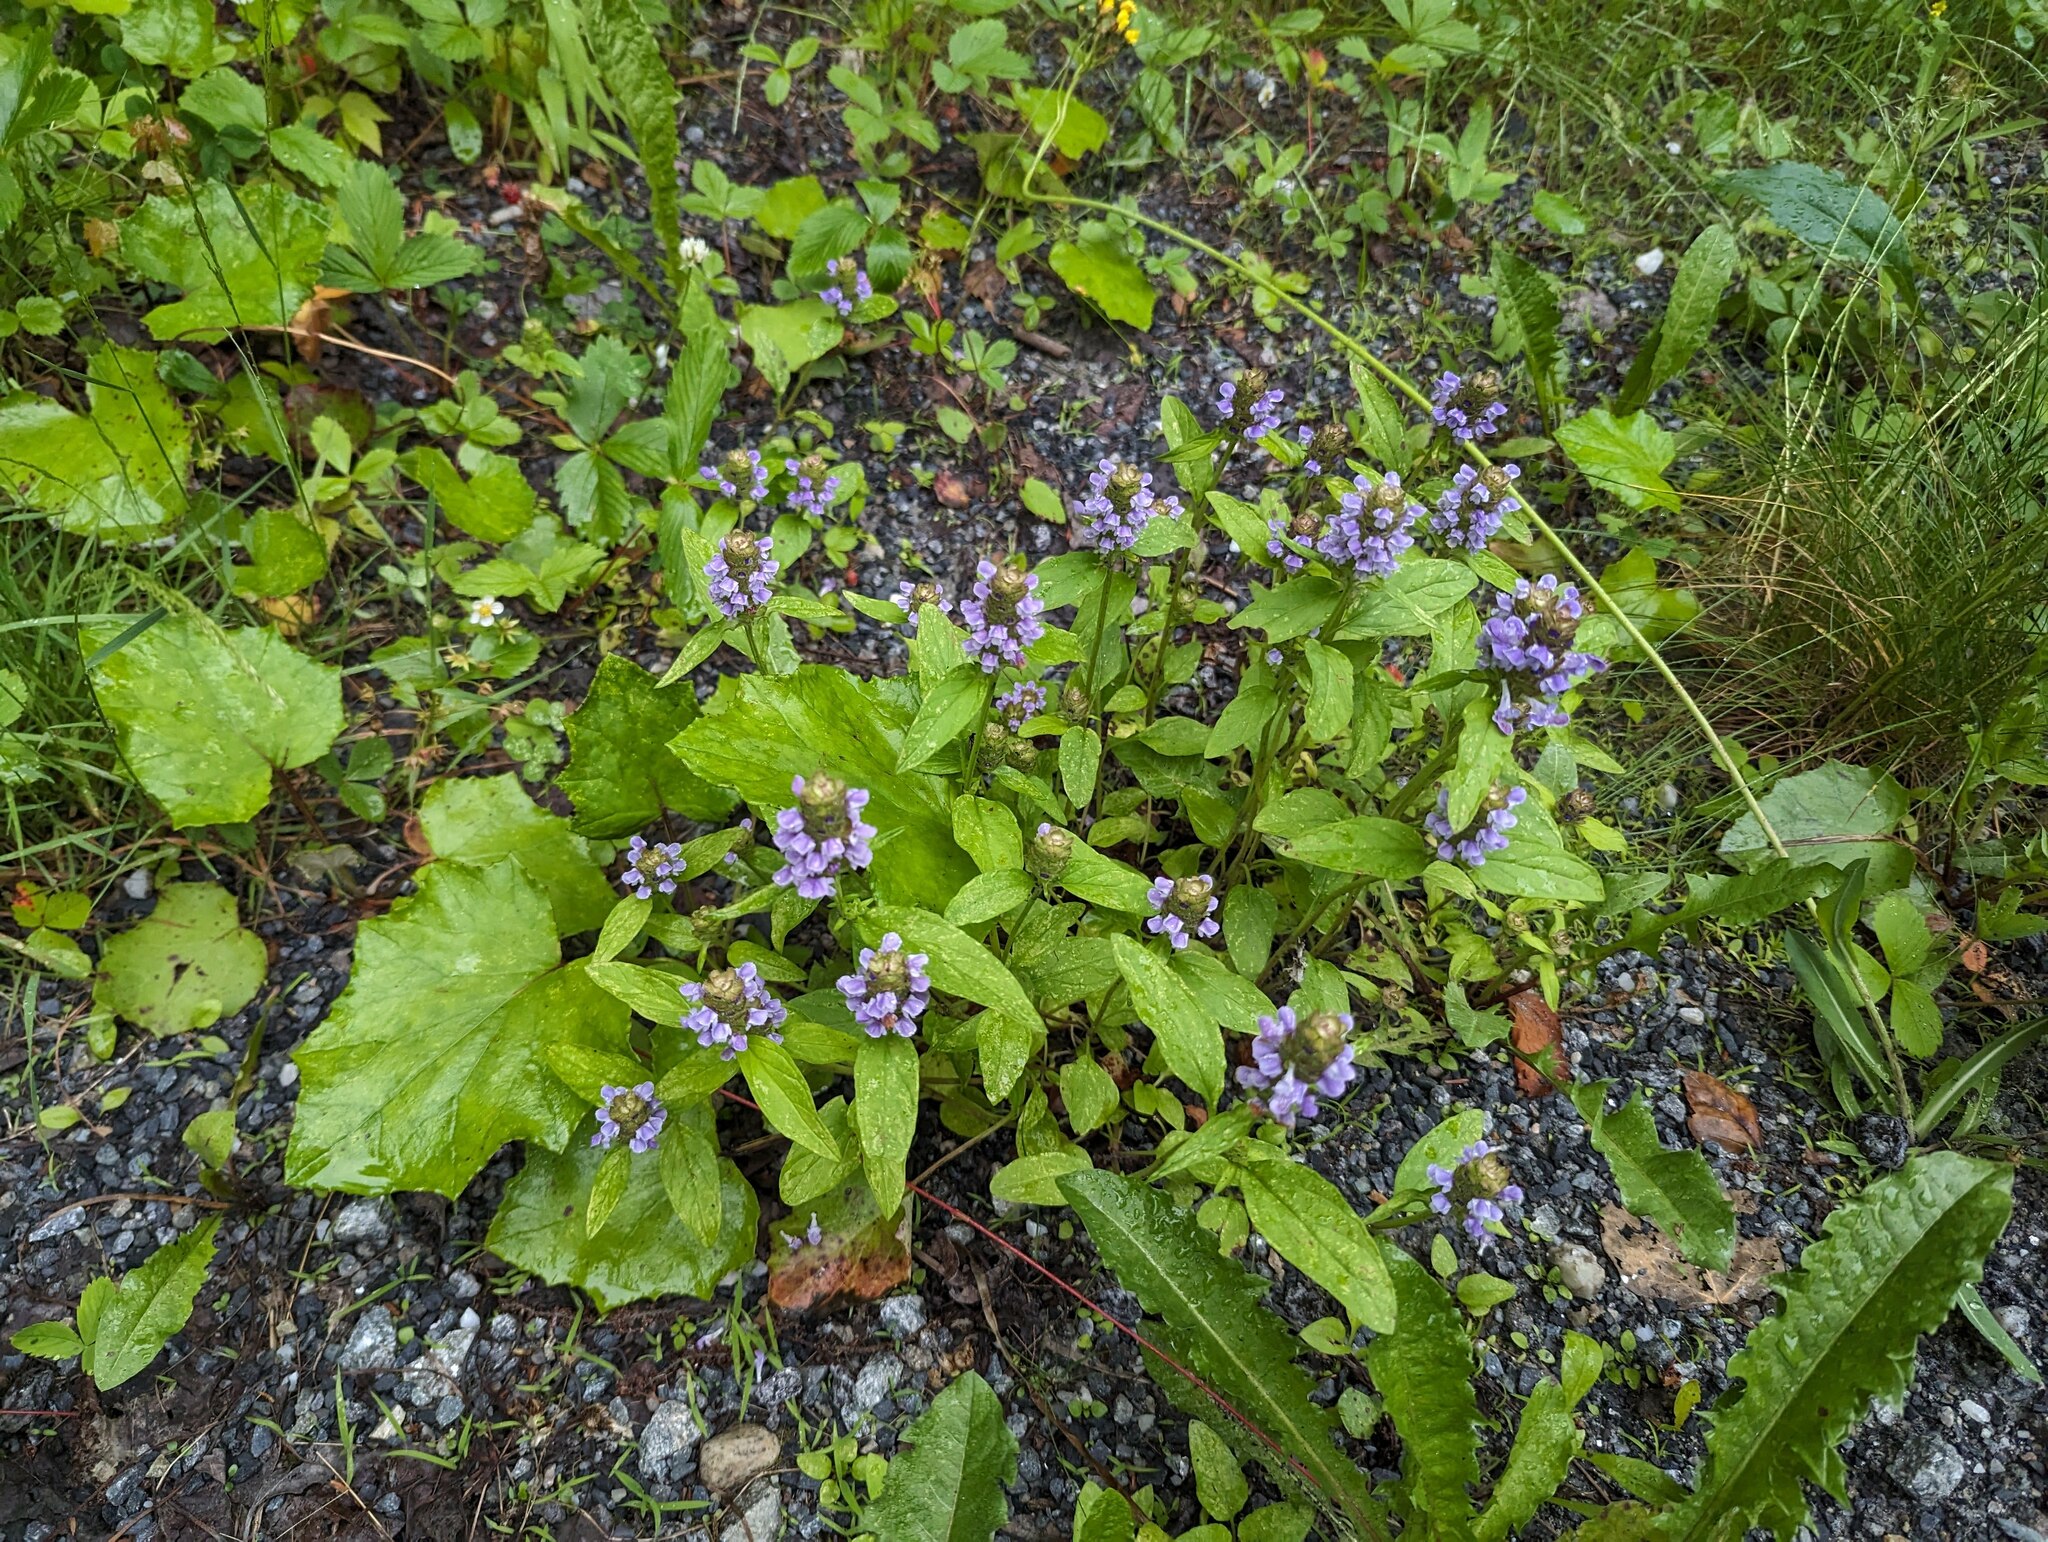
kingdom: Plantae
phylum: Tracheophyta
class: Magnoliopsida
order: Lamiales
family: Lamiaceae
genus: Prunella
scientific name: Prunella vulgaris
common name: Heal-all
